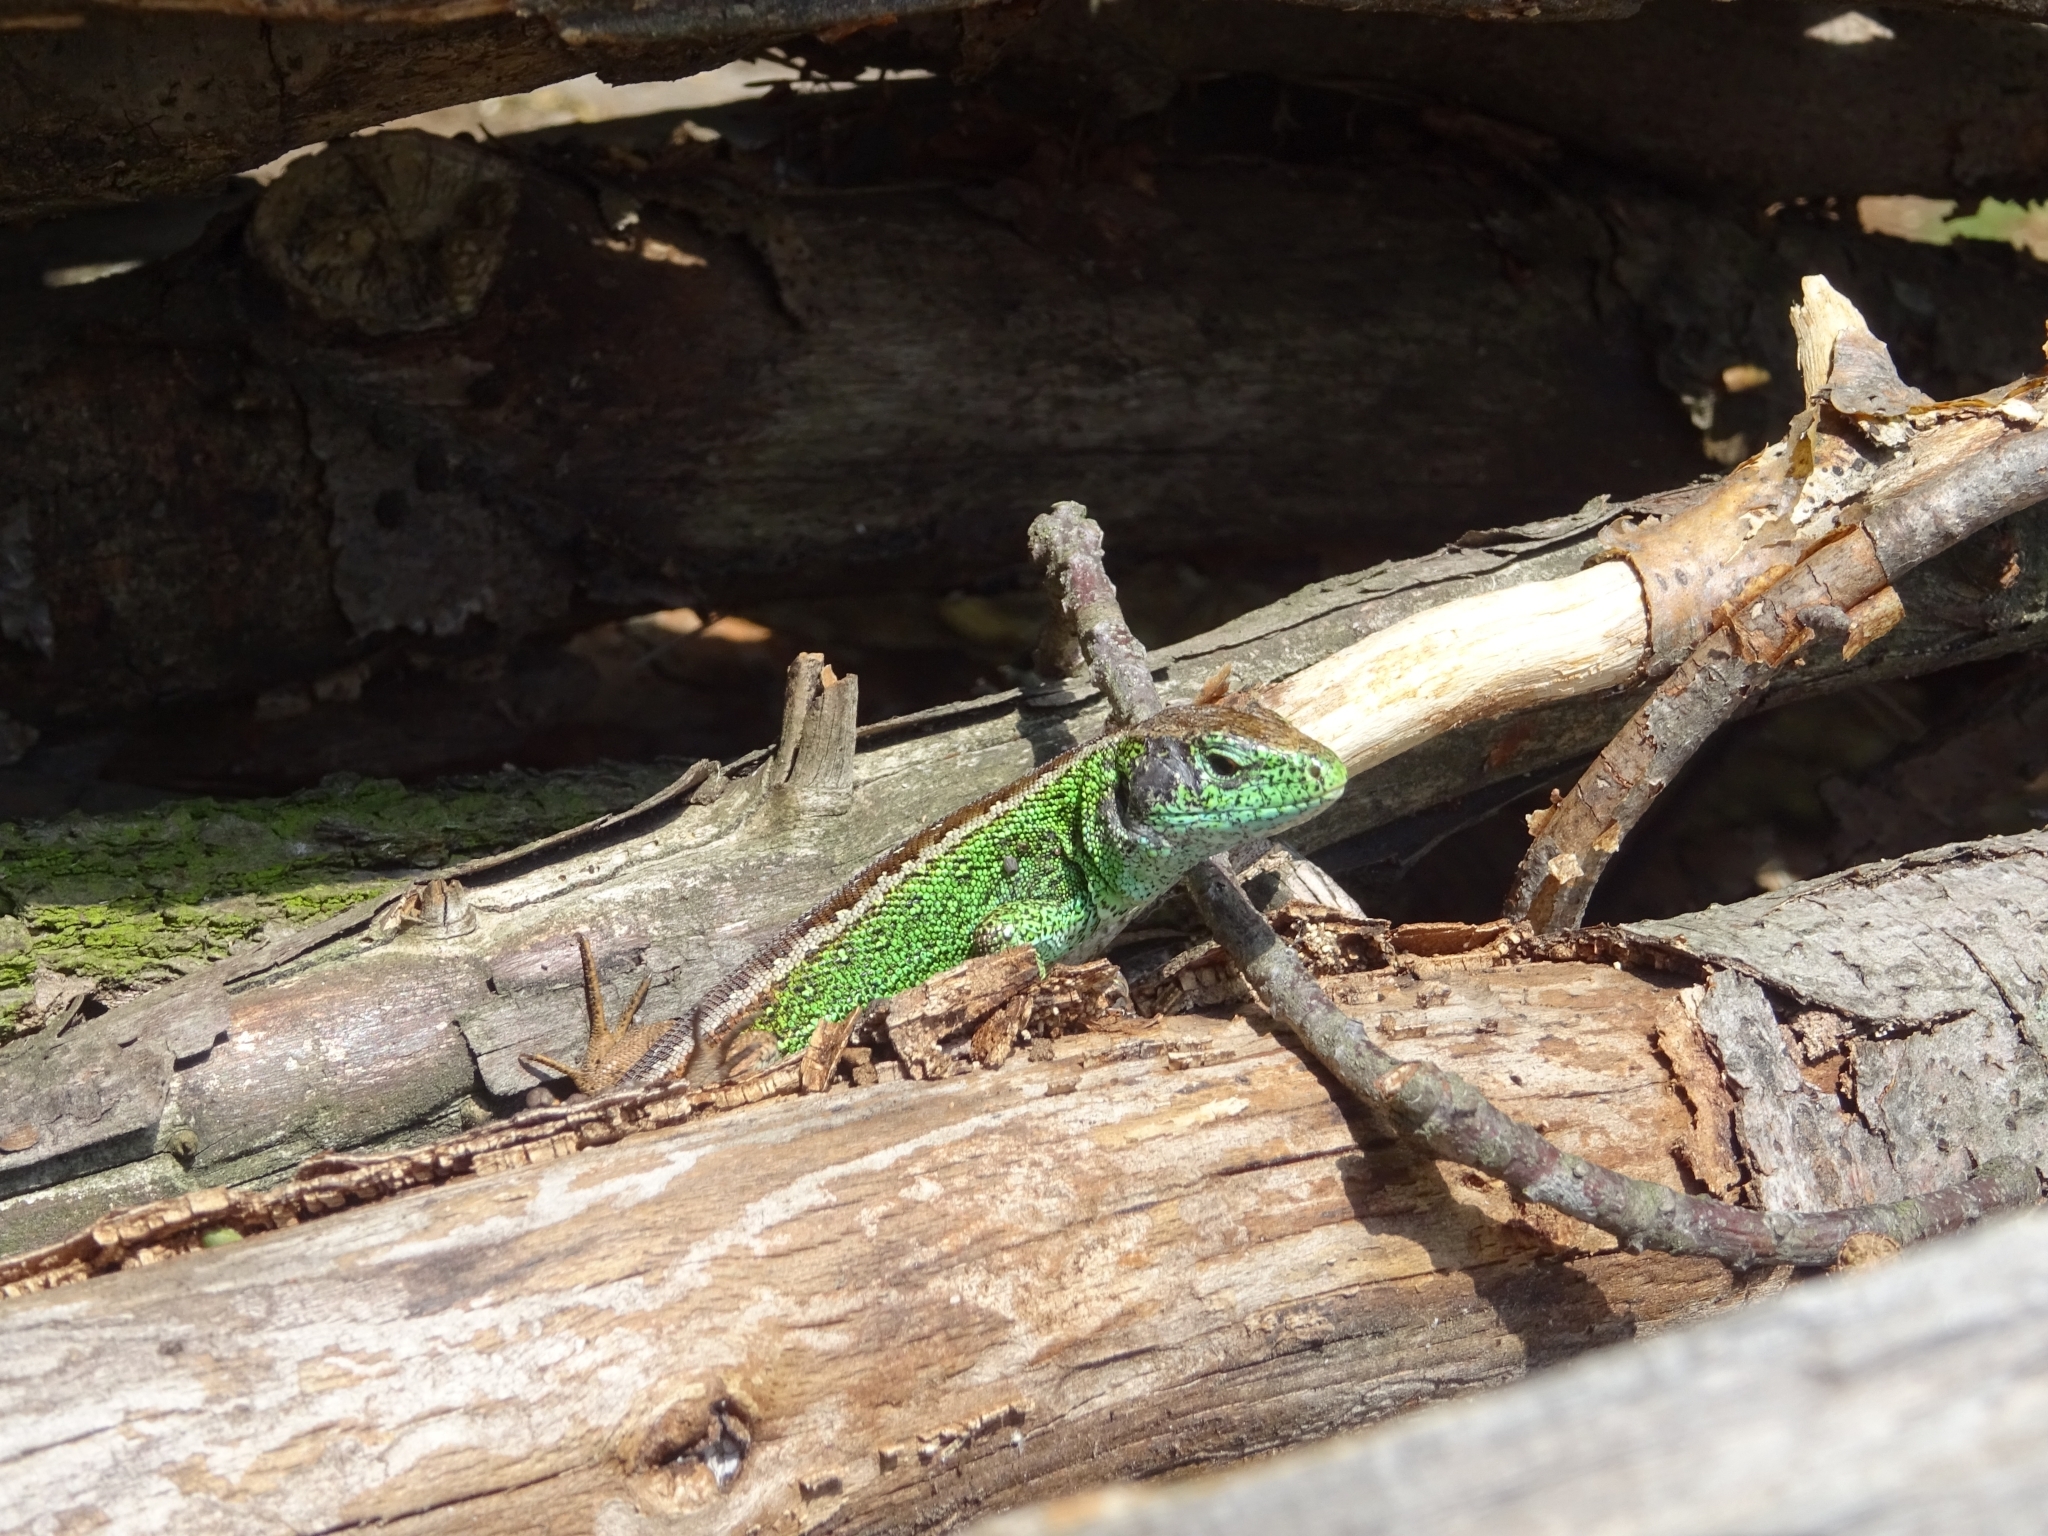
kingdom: Animalia
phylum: Chordata
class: Squamata
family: Lacertidae
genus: Lacerta
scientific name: Lacerta agilis
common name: Sand lizard
